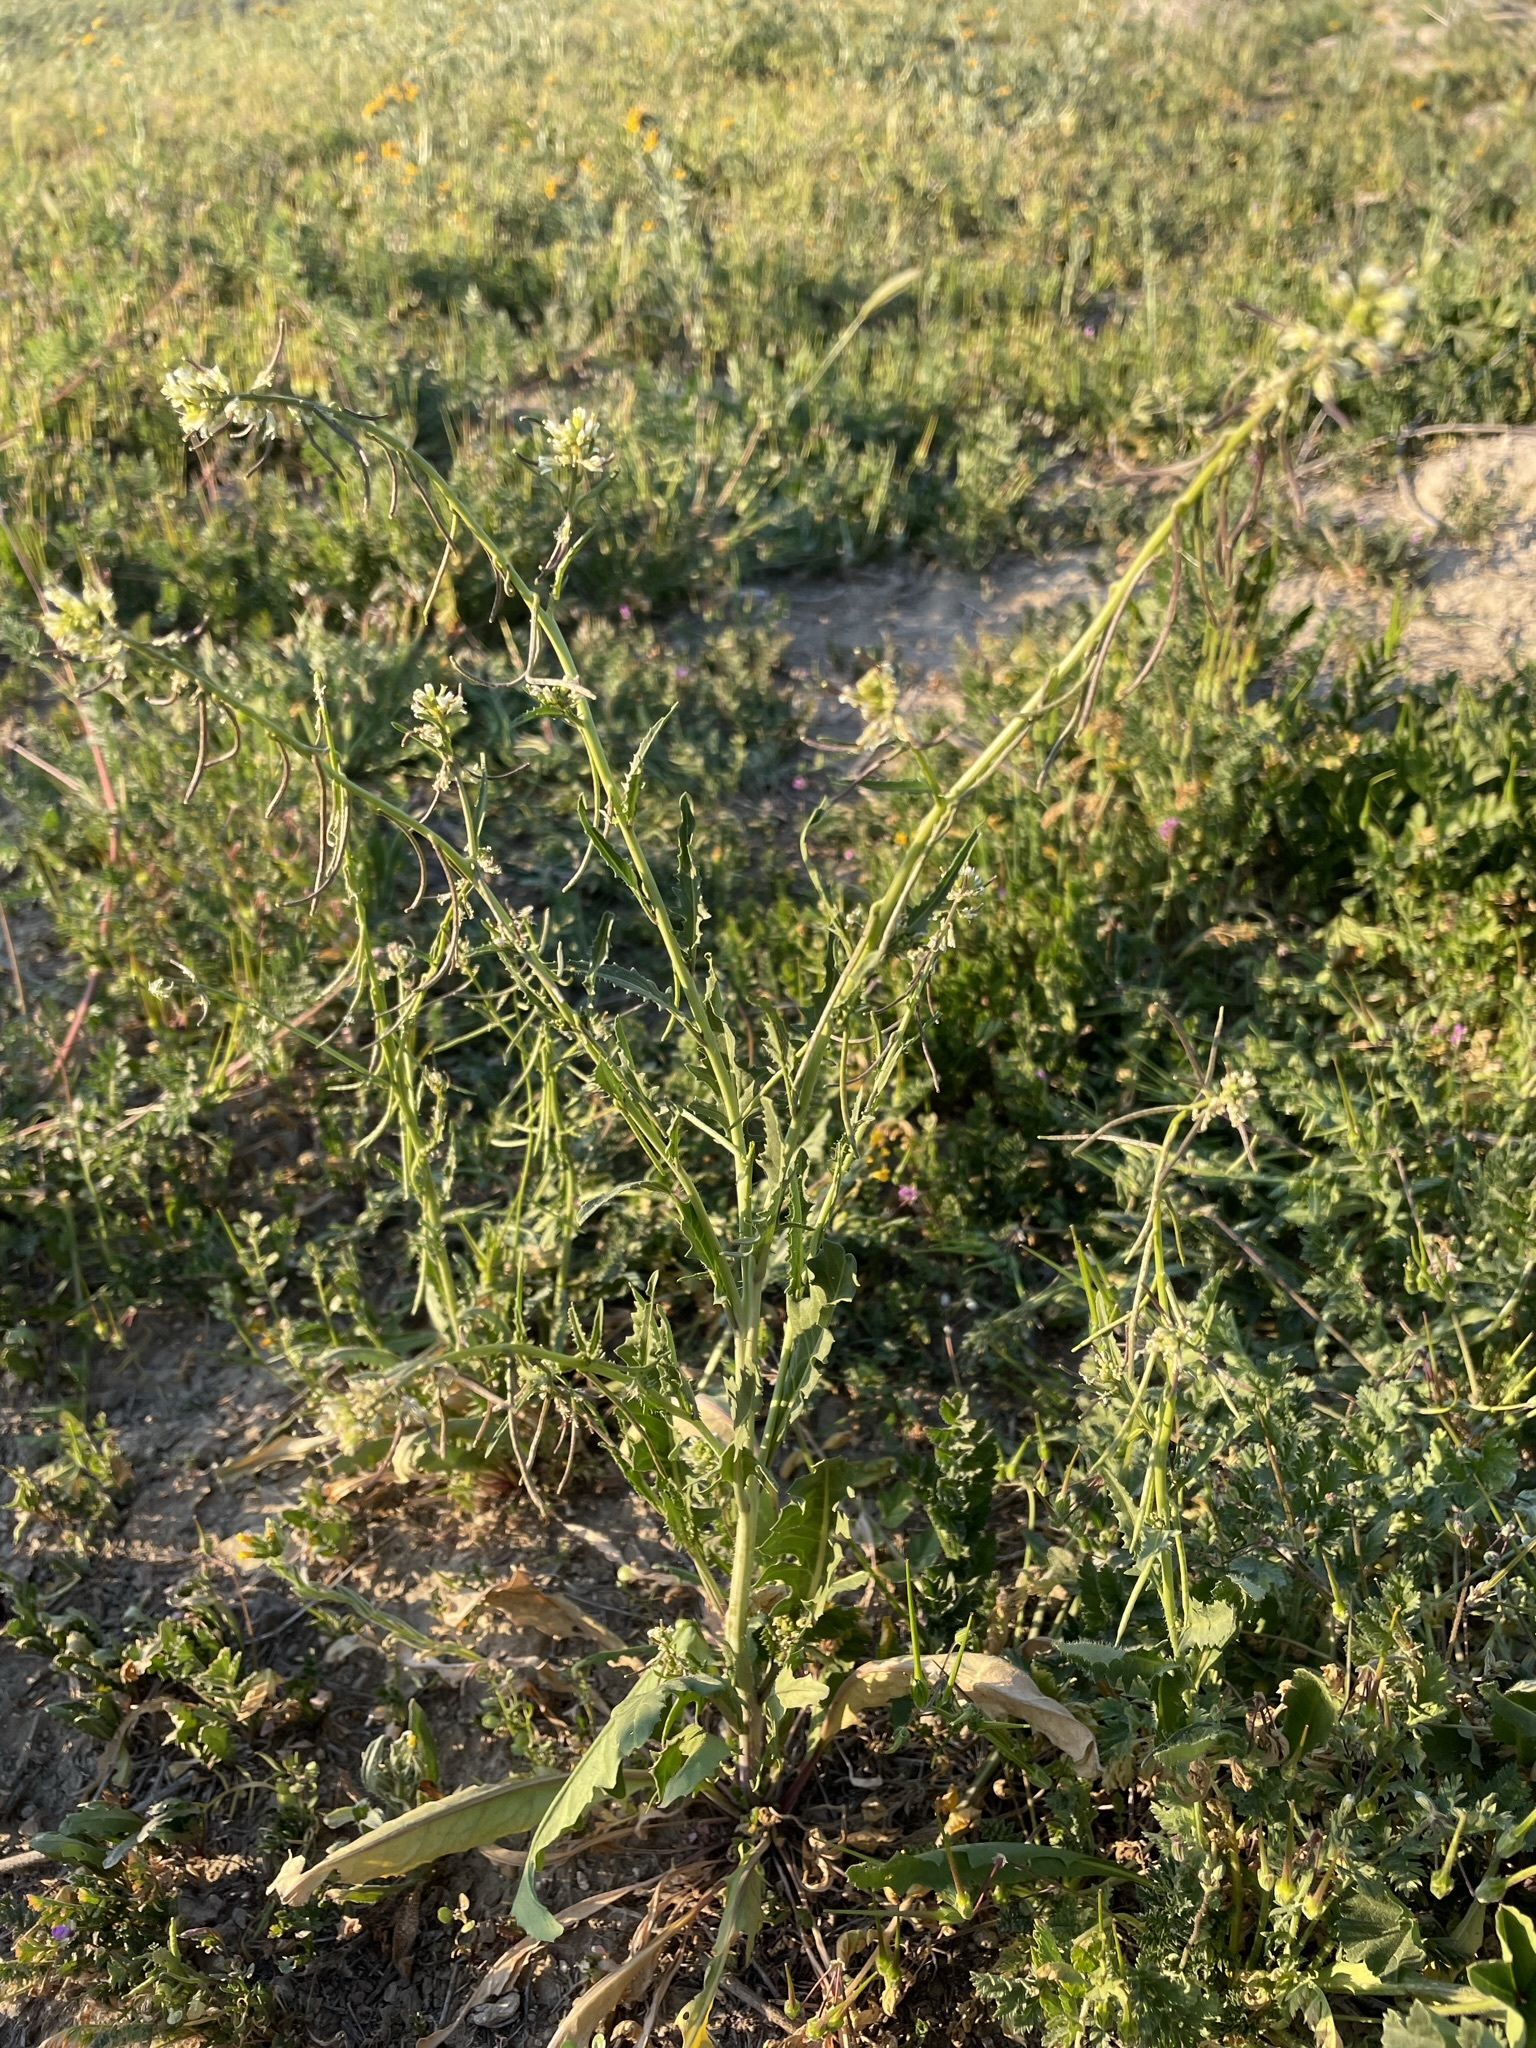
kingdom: Plantae
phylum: Tracheophyta
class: Magnoliopsida
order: Brassicales
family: Brassicaceae
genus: Streptanthus
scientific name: Streptanthus lasiophyllus
